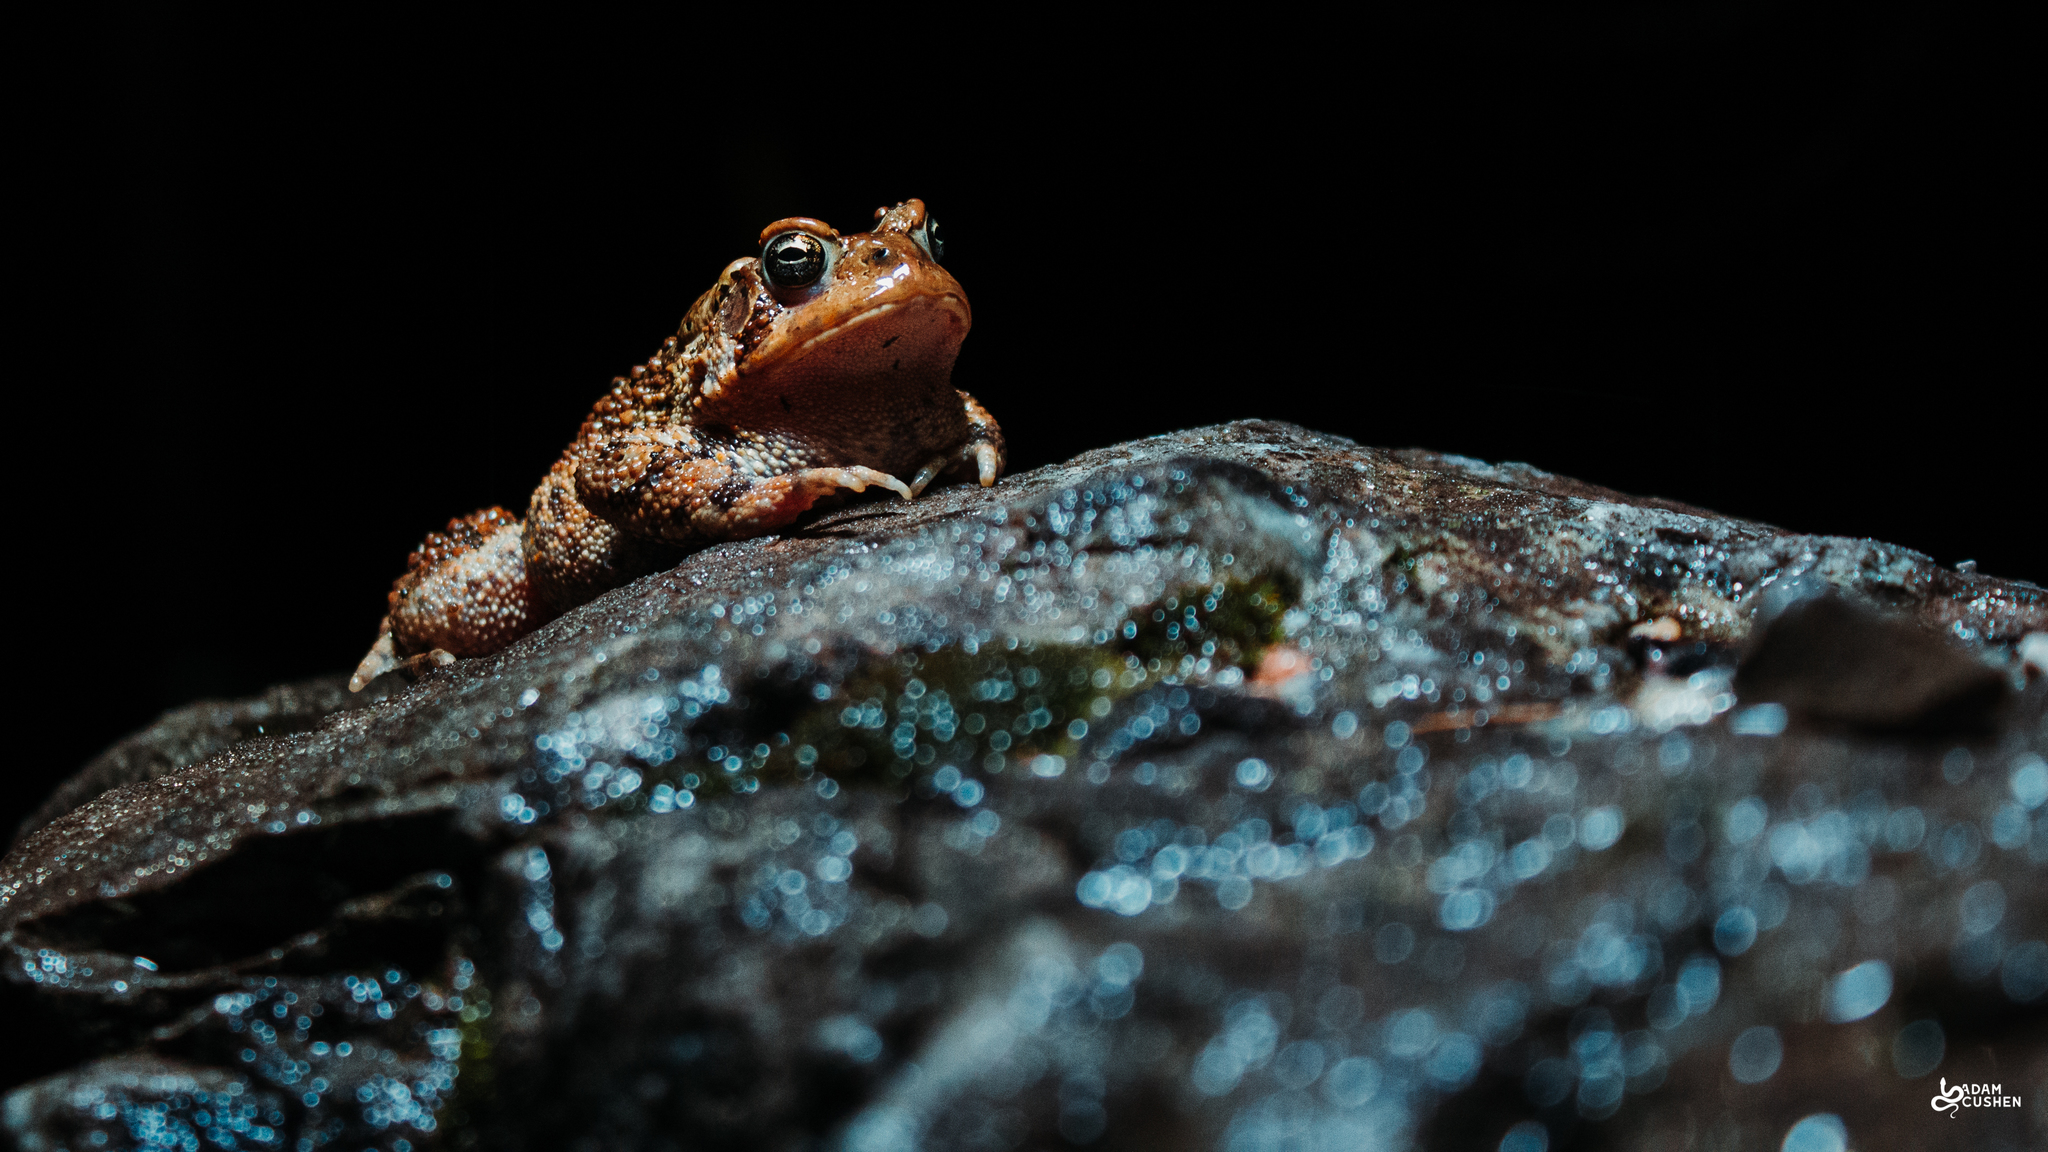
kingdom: Animalia
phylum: Chordata
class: Amphibia
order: Anura
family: Bufonidae
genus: Anaxyrus
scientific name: Anaxyrus americanus
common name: American toad
